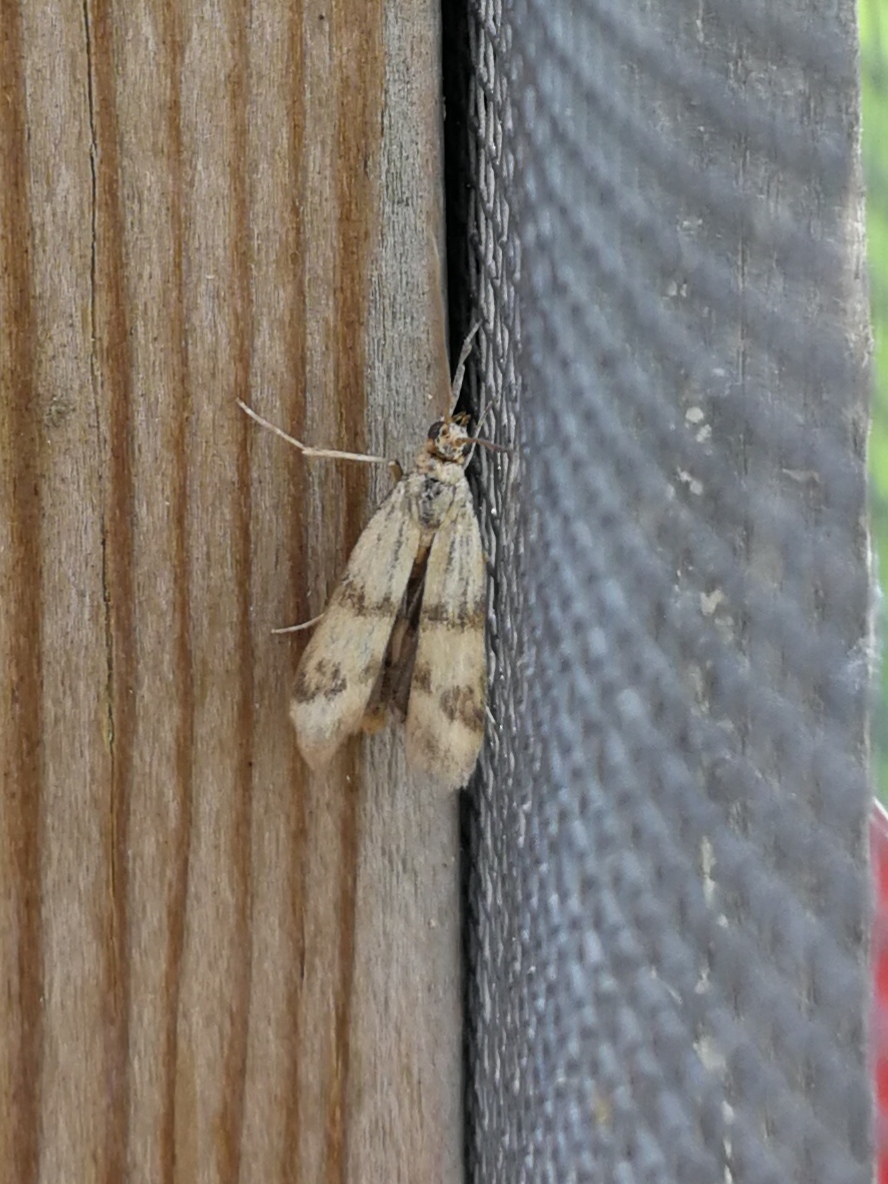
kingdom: Animalia
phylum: Arthropoda
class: Insecta
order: Lepidoptera
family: Pyralidae
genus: Homoeosoma
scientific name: Homoeosoma sinuella
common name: Twin-barred knot-horn
